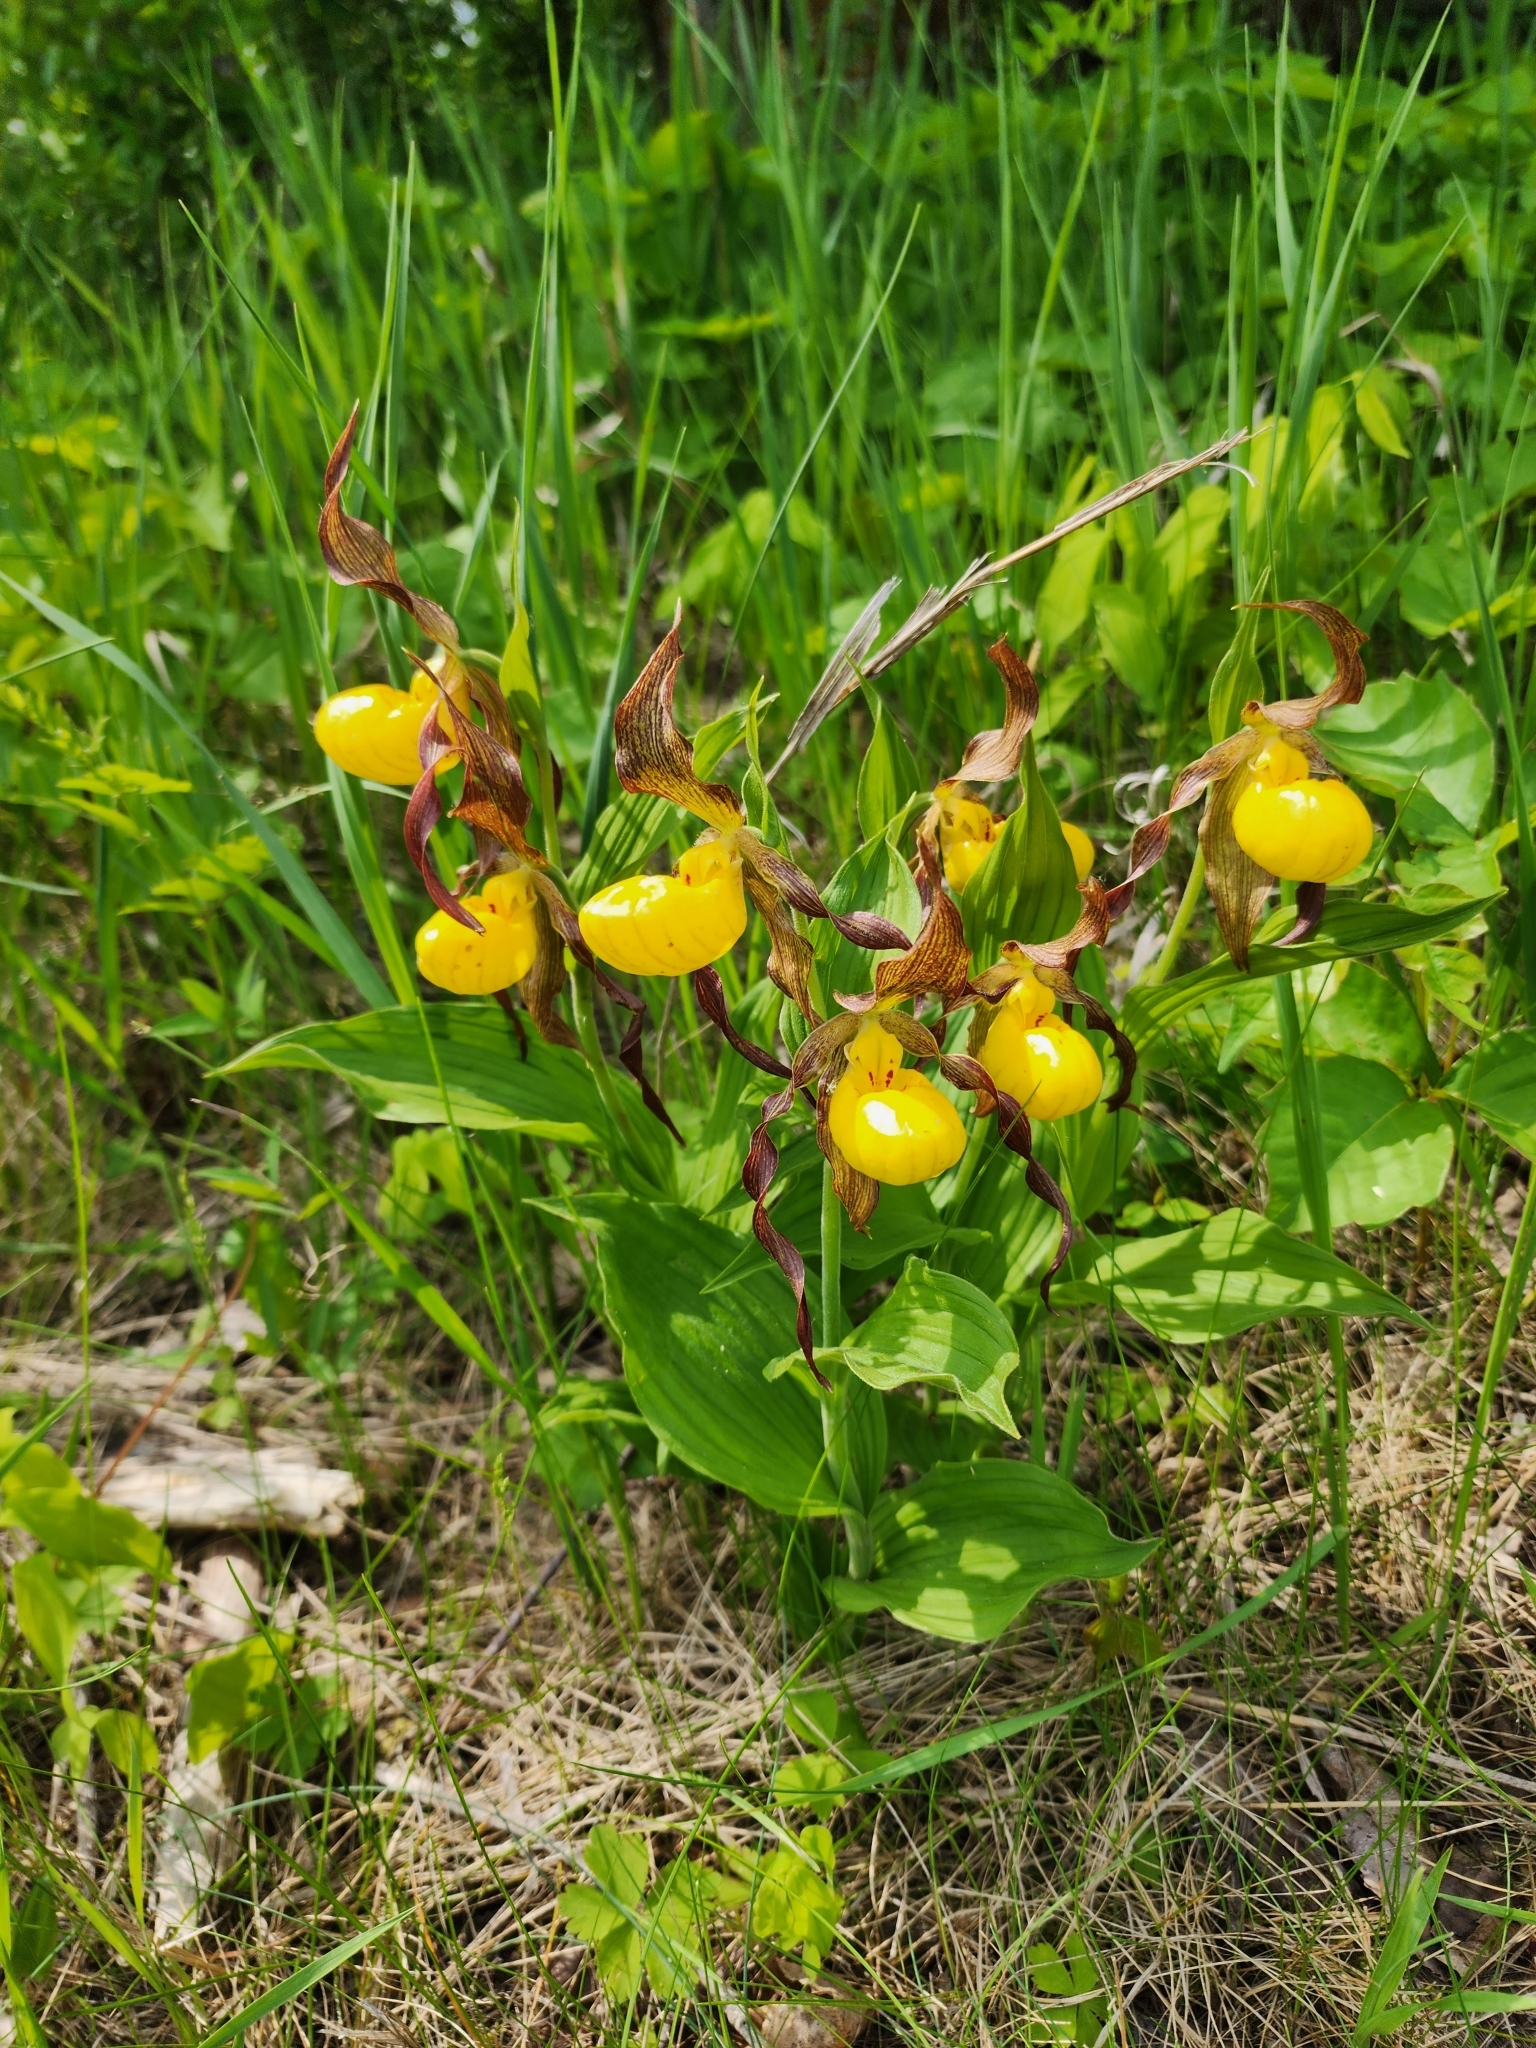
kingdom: Plantae
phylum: Tracheophyta
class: Liliopsida
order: Asparagales
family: Orchidaceae
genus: Cypripedium
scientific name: Cypripedium parviflorum
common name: American yellow lady's-slipper
